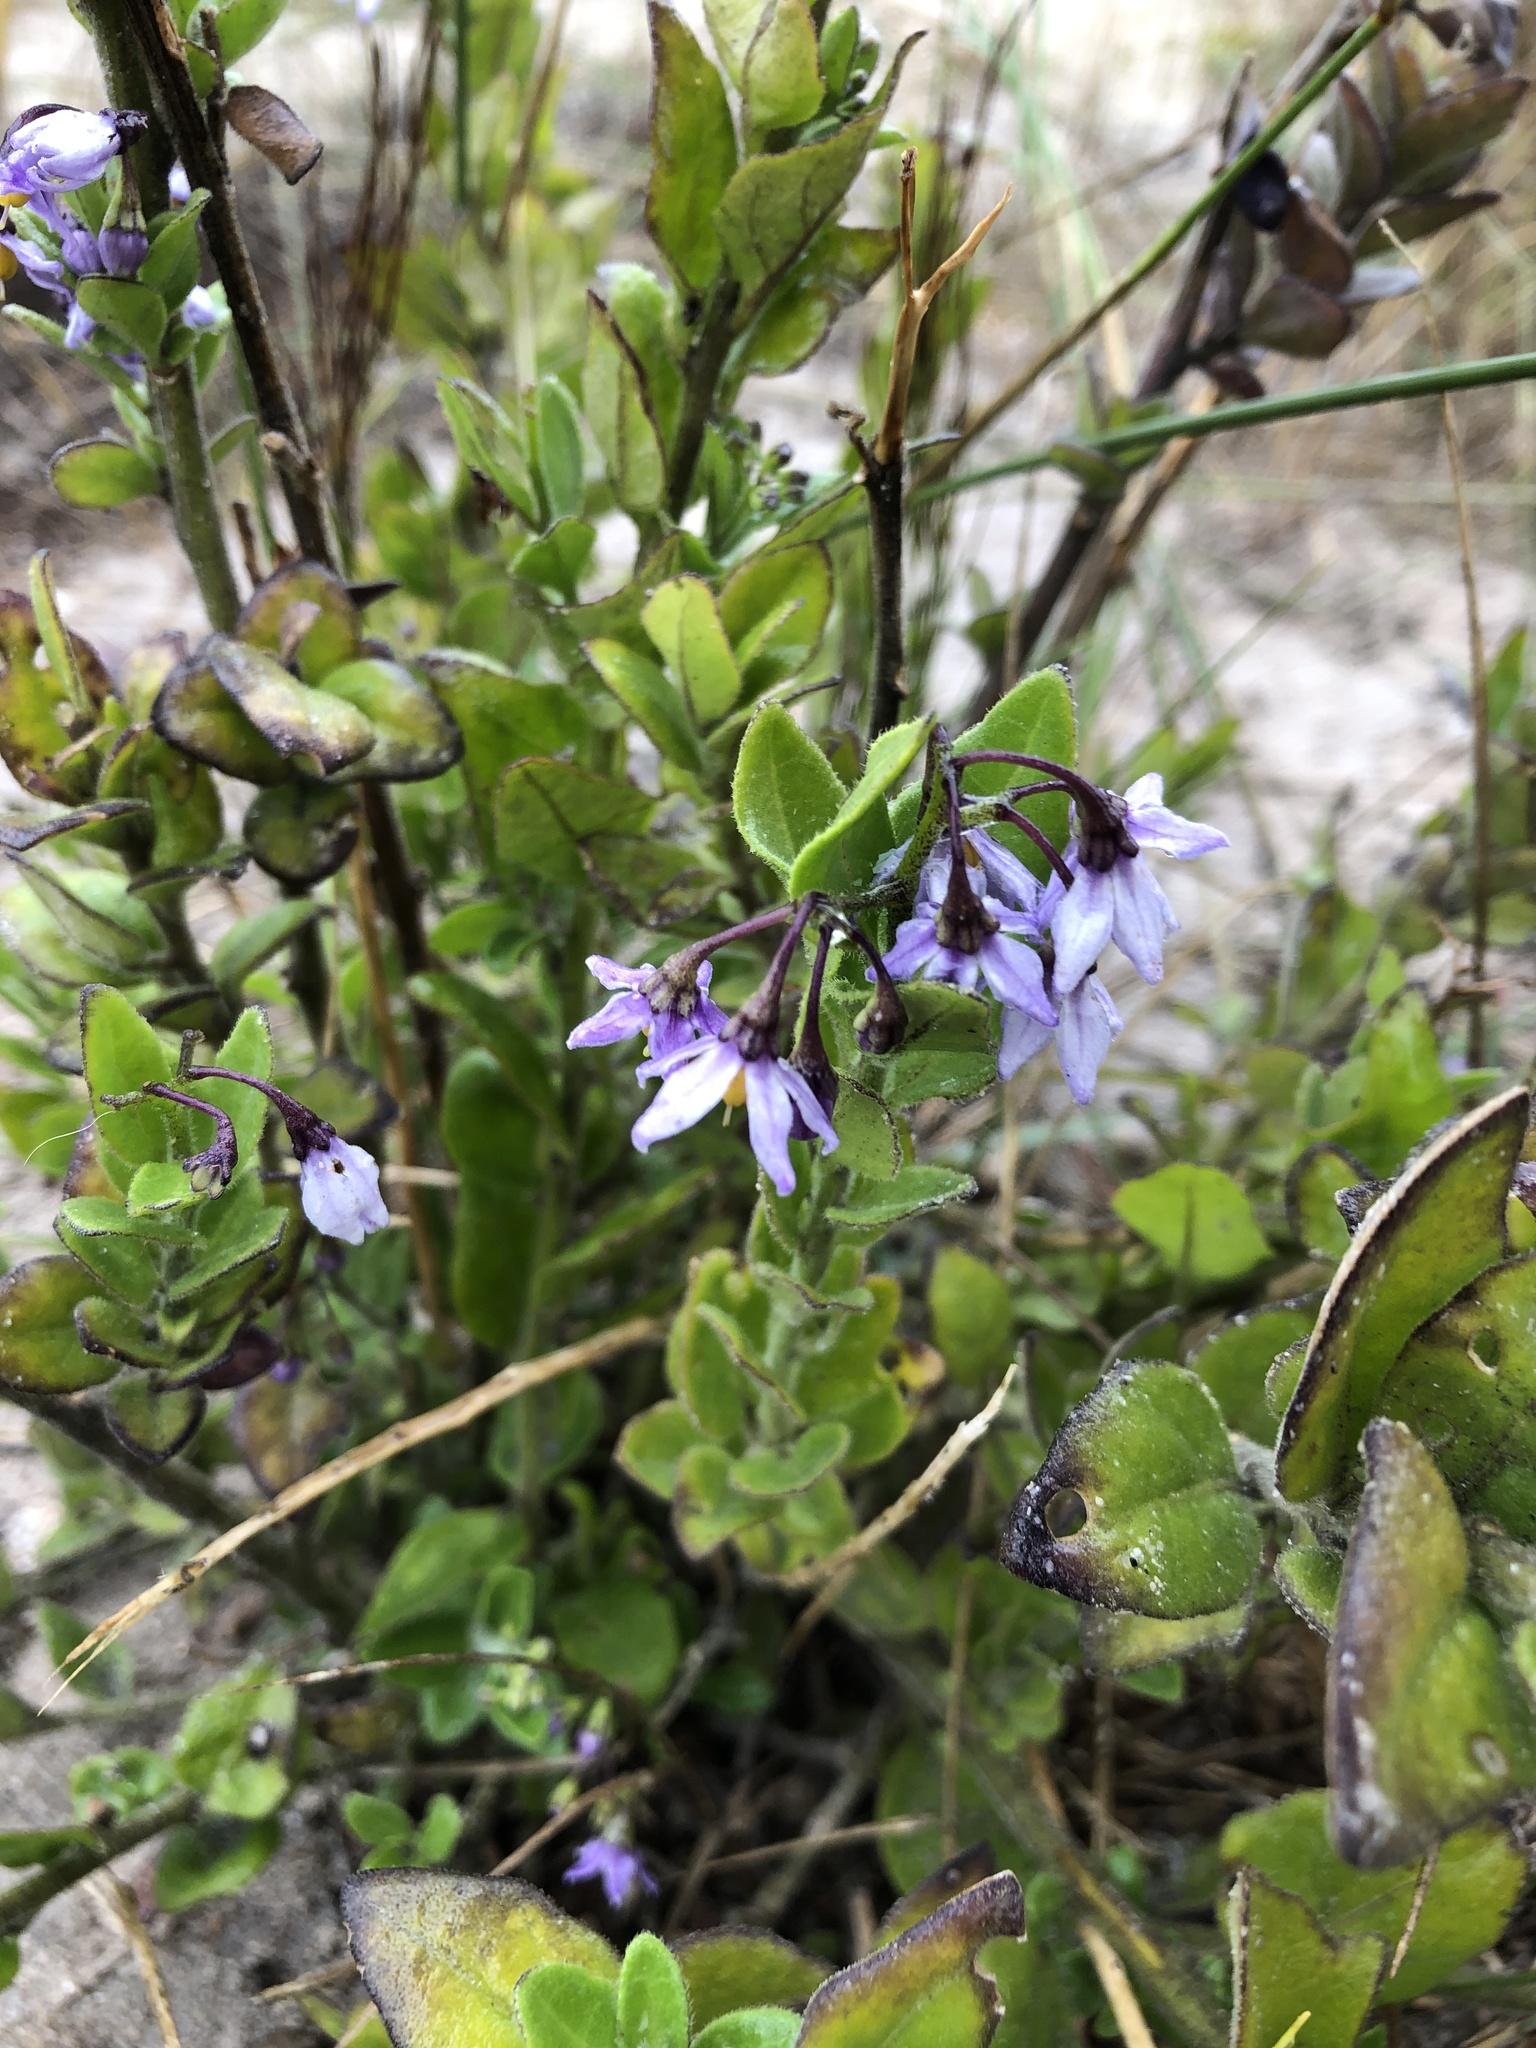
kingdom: Plantae
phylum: Tracheophyta
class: Magnoliopsida
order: Solanales
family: Solanaceae
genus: Solanum
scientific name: Solanum africanum
